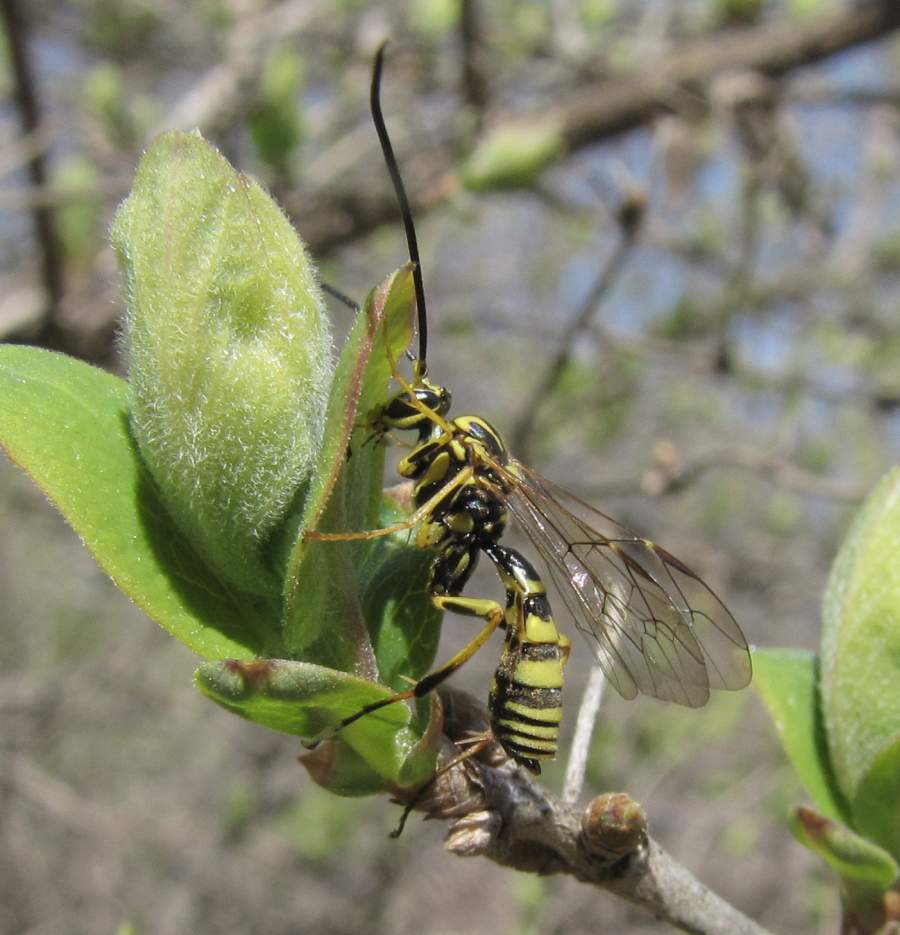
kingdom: Animalia
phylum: Arthropoda
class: Insecta
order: Hymenoptera
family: Ichneumonidae
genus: Banchus
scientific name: Banchus
